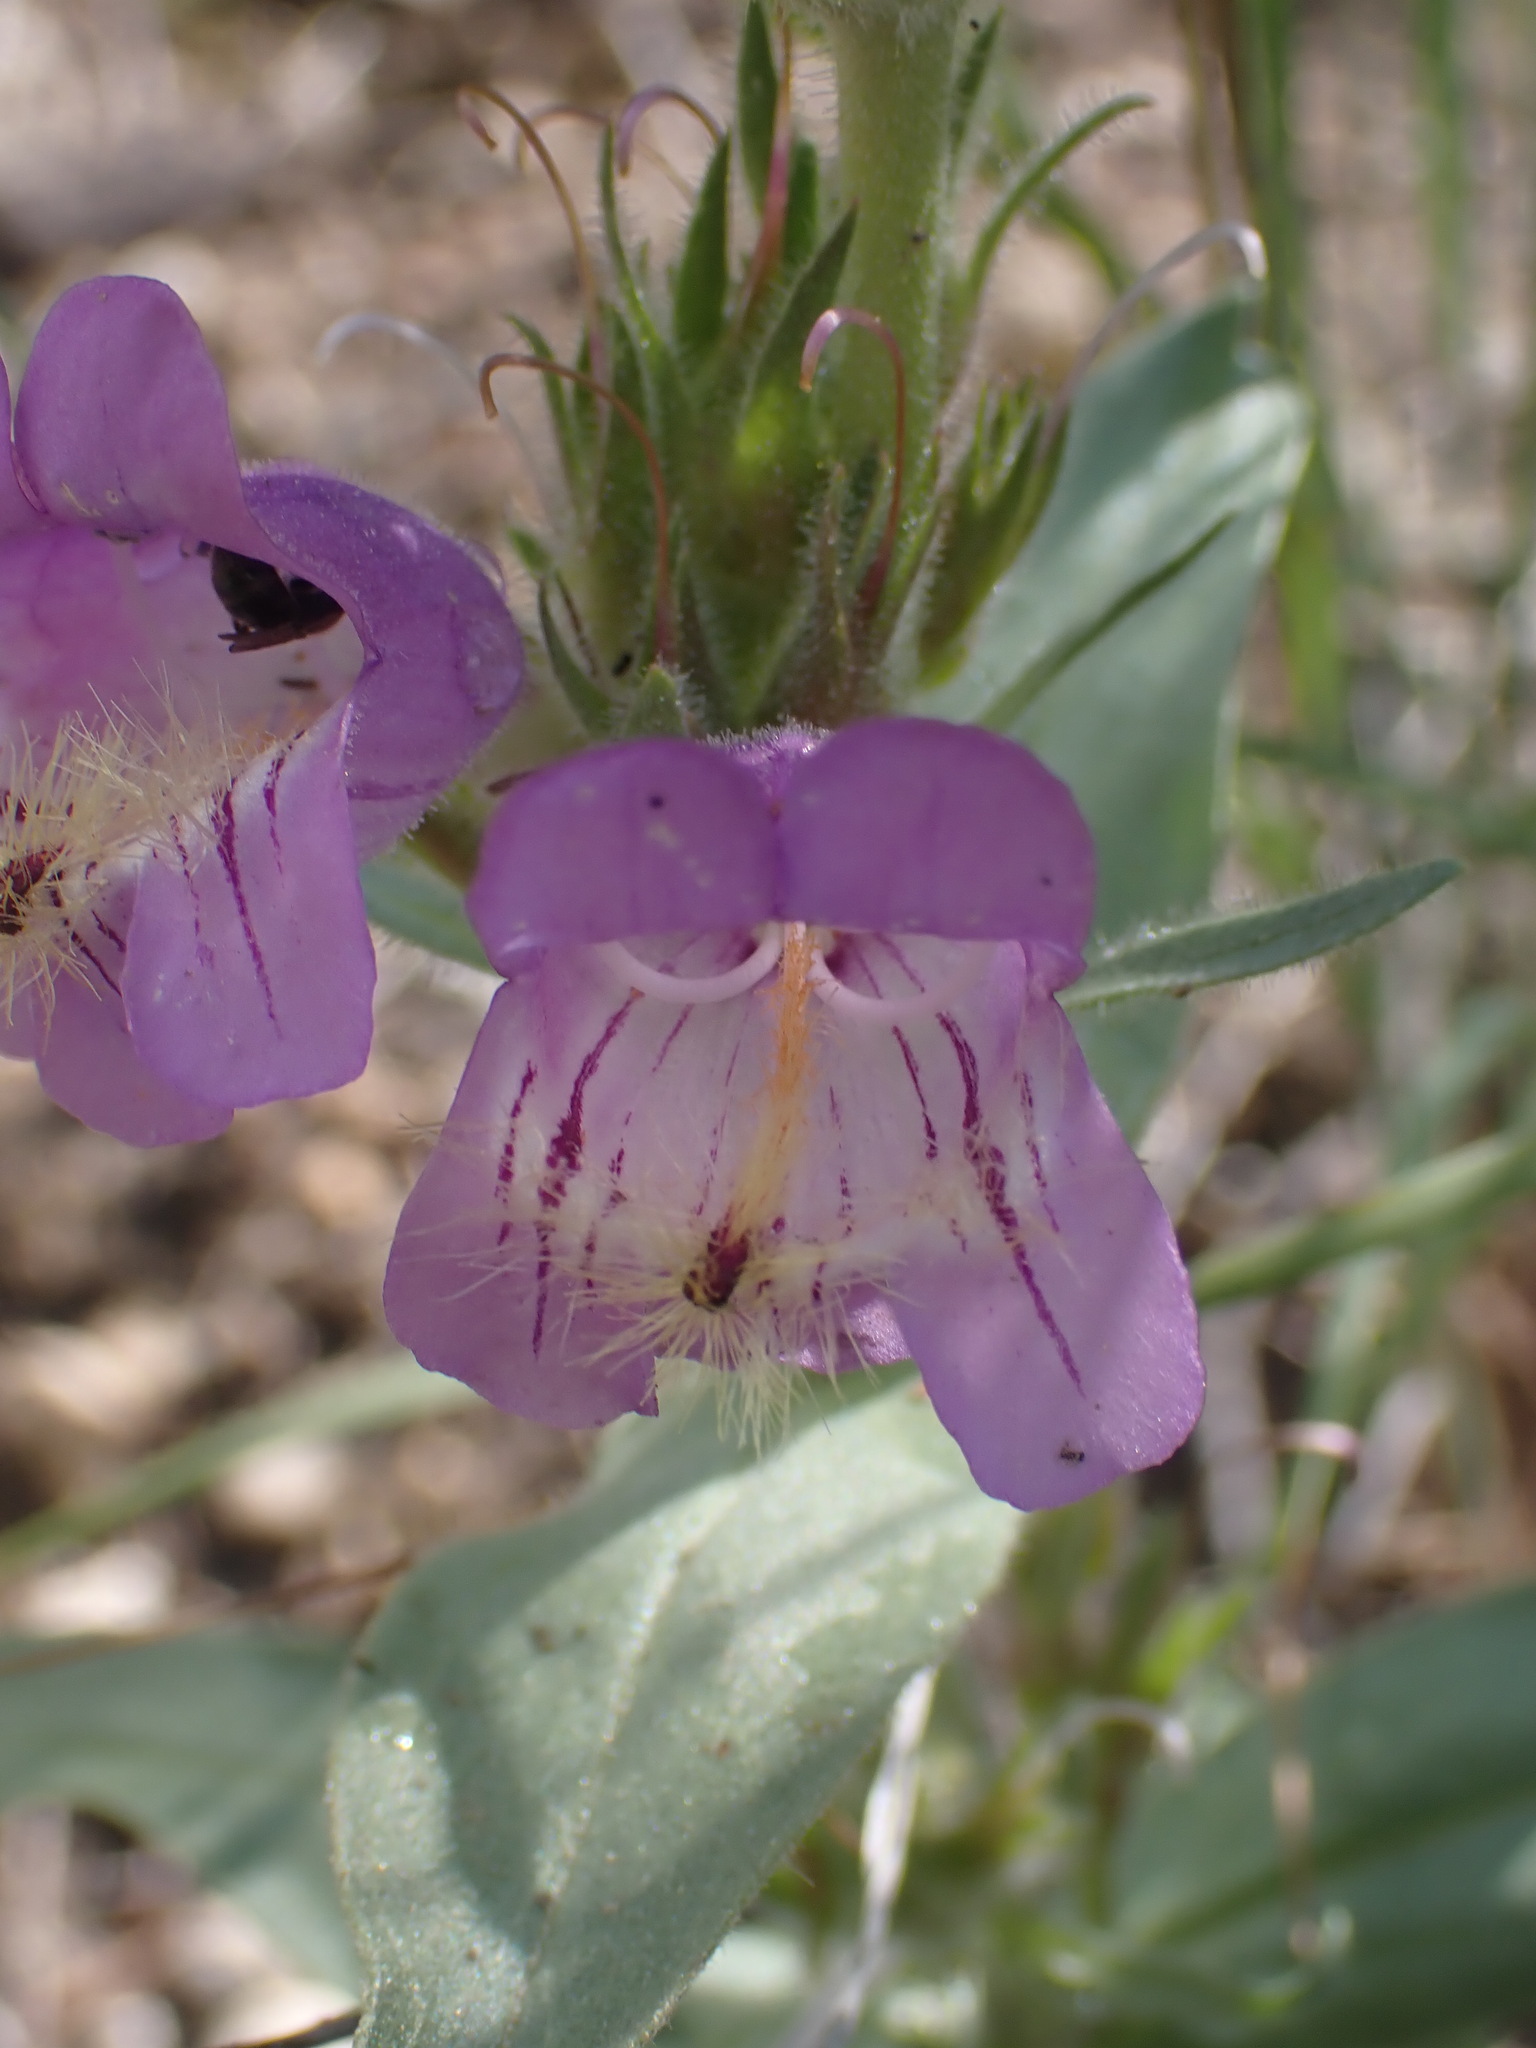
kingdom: Plantae
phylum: Tracheophyta
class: Magnoliopsida
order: Lamiales
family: Plantaginaceae
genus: Penstemon
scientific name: Penstemon eriantherus
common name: Crested beardtongue
